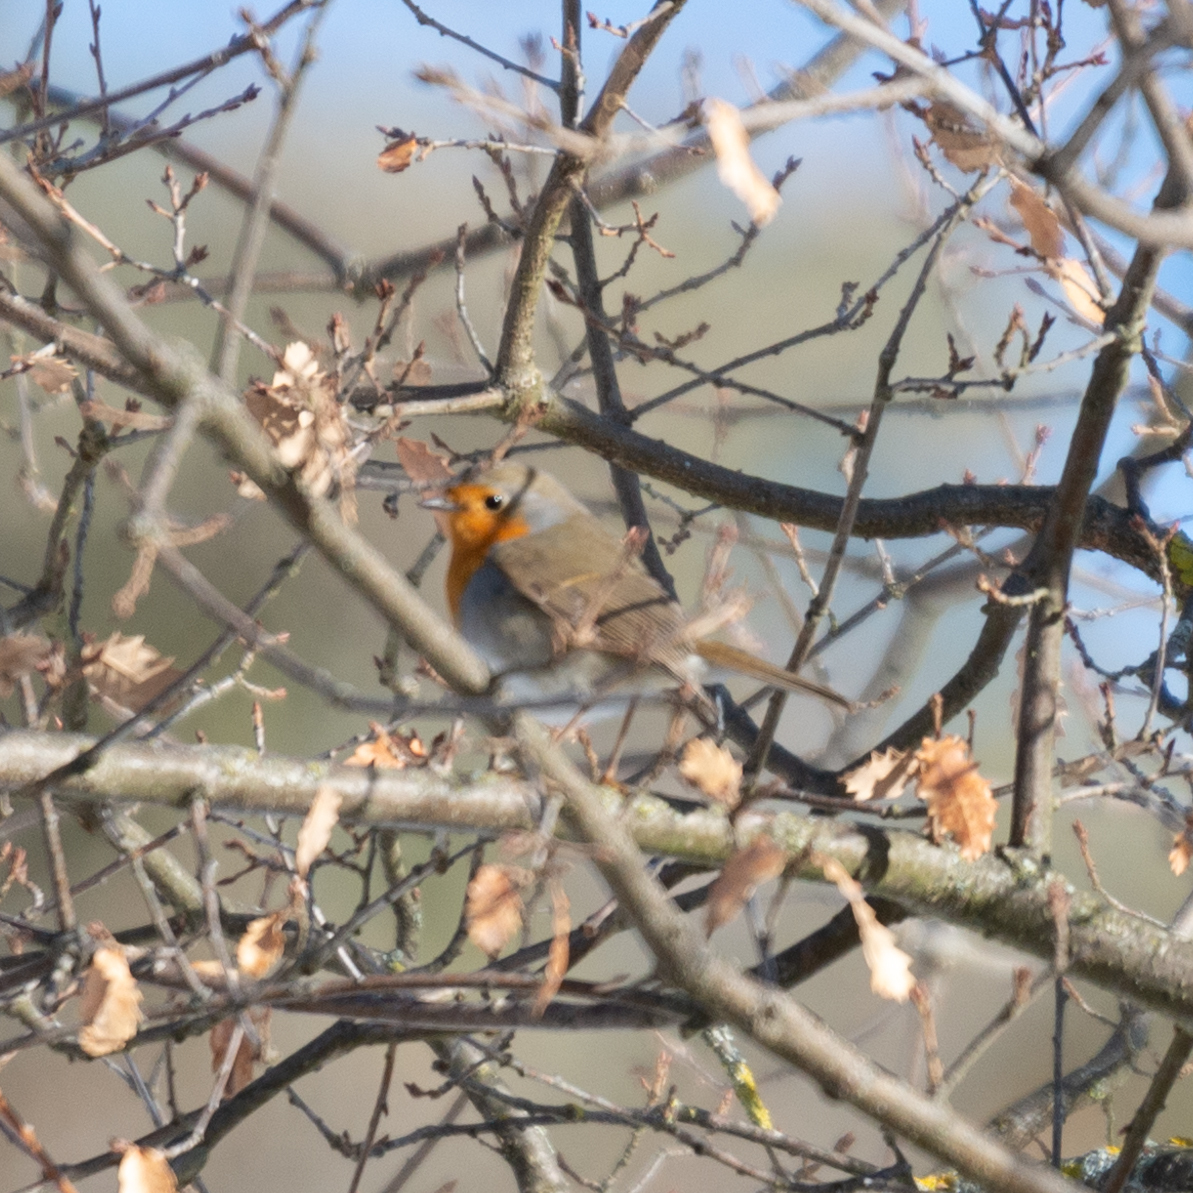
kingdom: Animalia
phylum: Chordata
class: Aves
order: Passeriformes
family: Muscicapidae
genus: Erithacus
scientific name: Erithacus rubecula
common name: European robin
